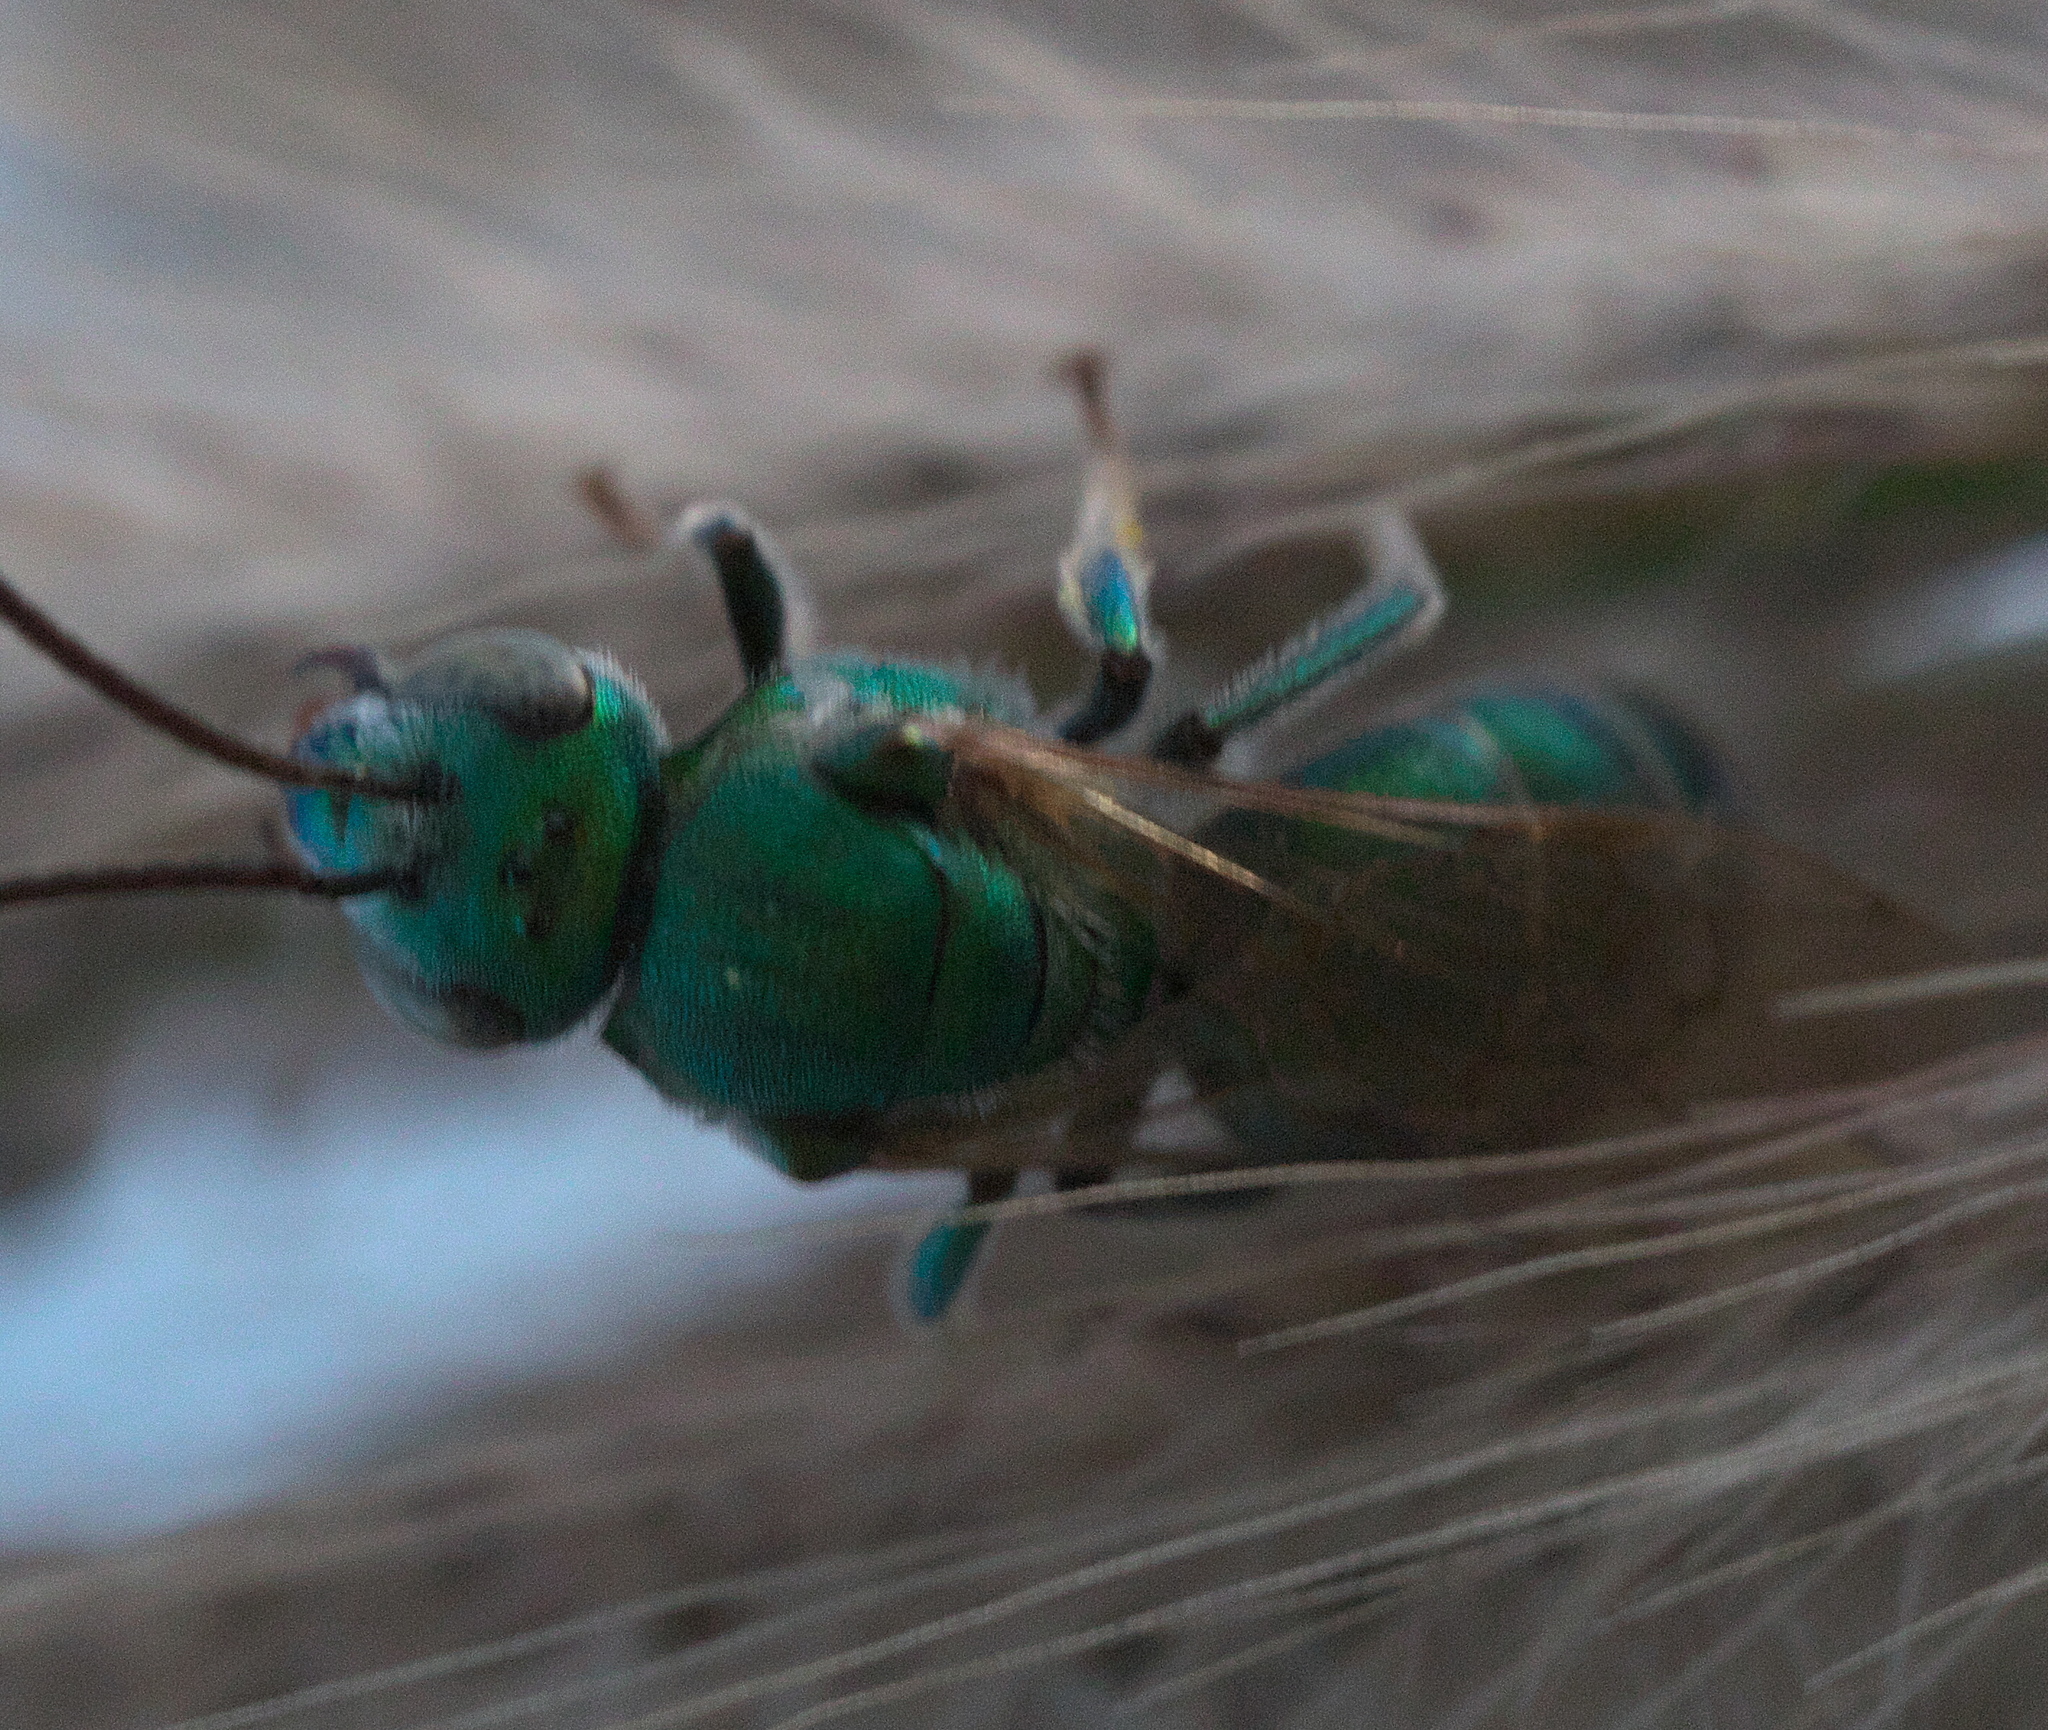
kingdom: Animalia
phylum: Arthropoda
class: Insecta
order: Hymenoptera
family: Halictidae
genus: Augochloropsis
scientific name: Augochloropsis humeralis
